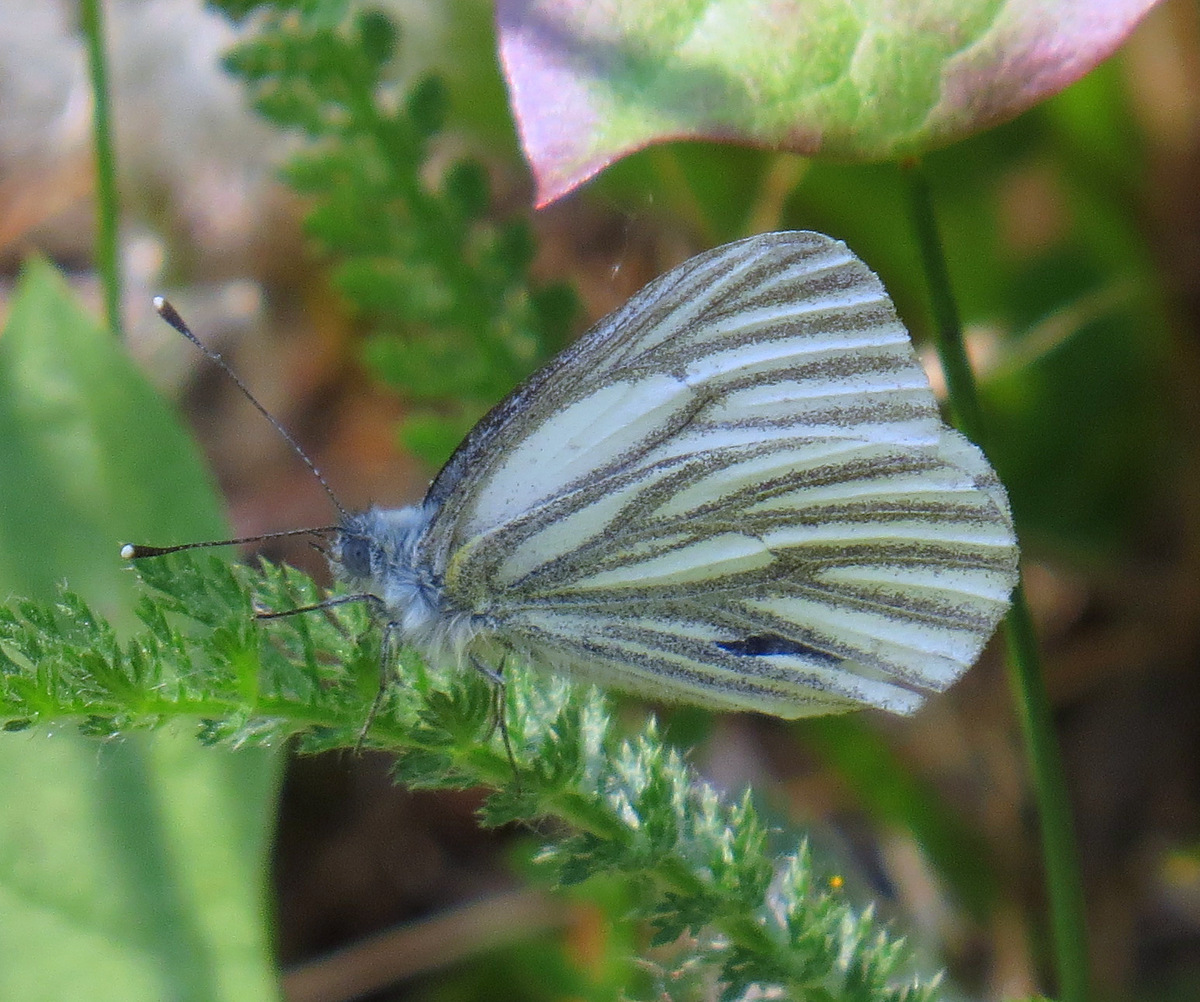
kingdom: Animalia
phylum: Arthropoda
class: Insecta
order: Lepidoptera
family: Pieridae
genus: Pieris
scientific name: Pieris marginalis
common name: Margined white
